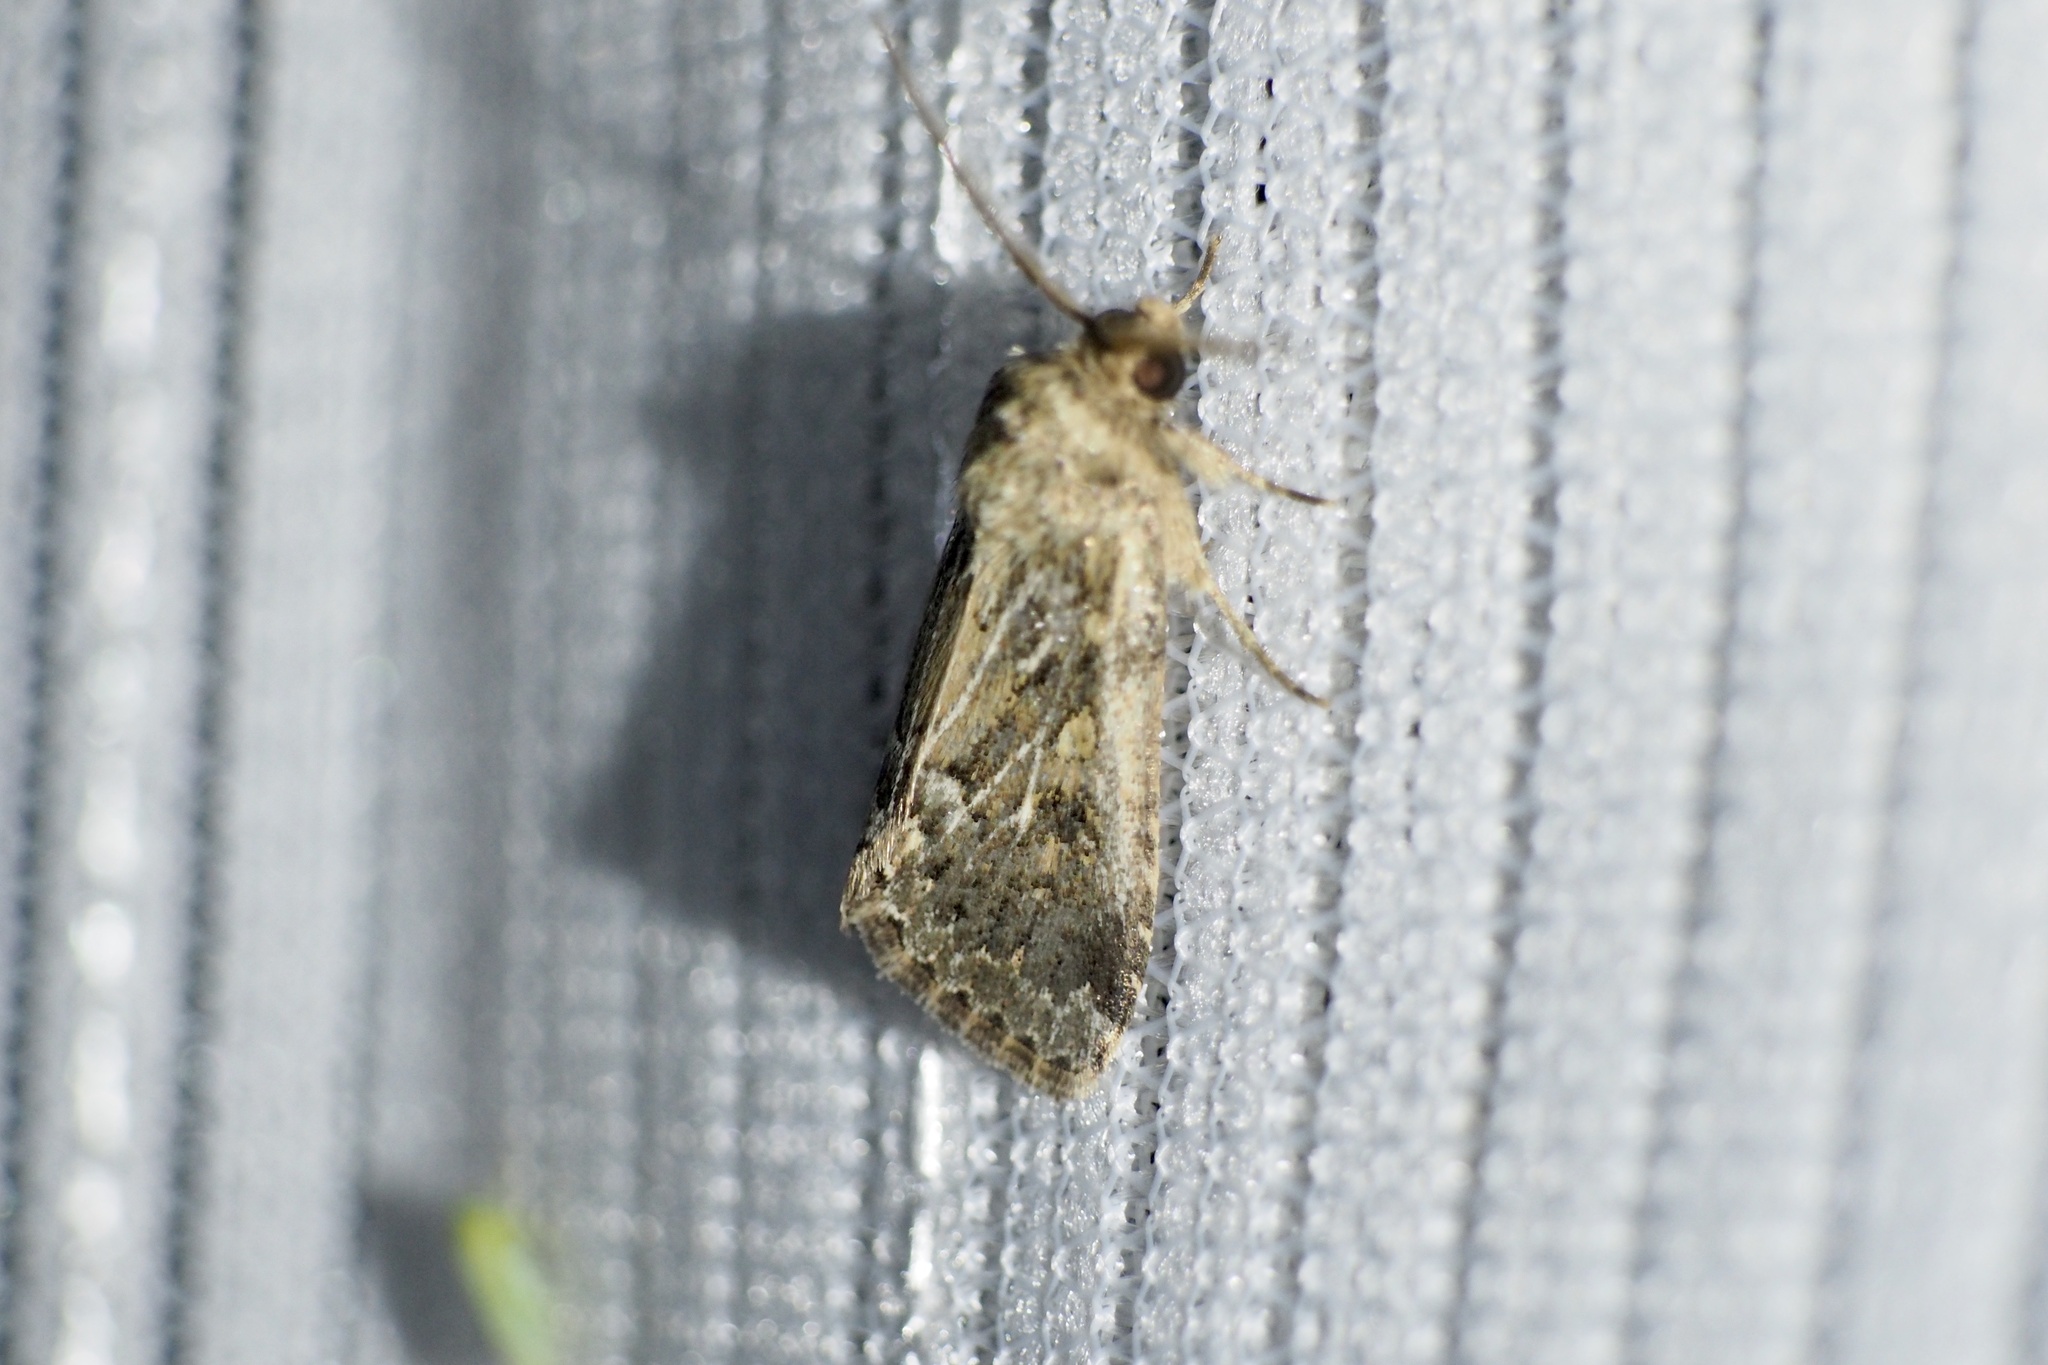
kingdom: Animalia
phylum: Arthropoda
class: Insecta
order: Lepidoptera
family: Noctuidae
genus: Spodoptera
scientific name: Spodoptera depravata
